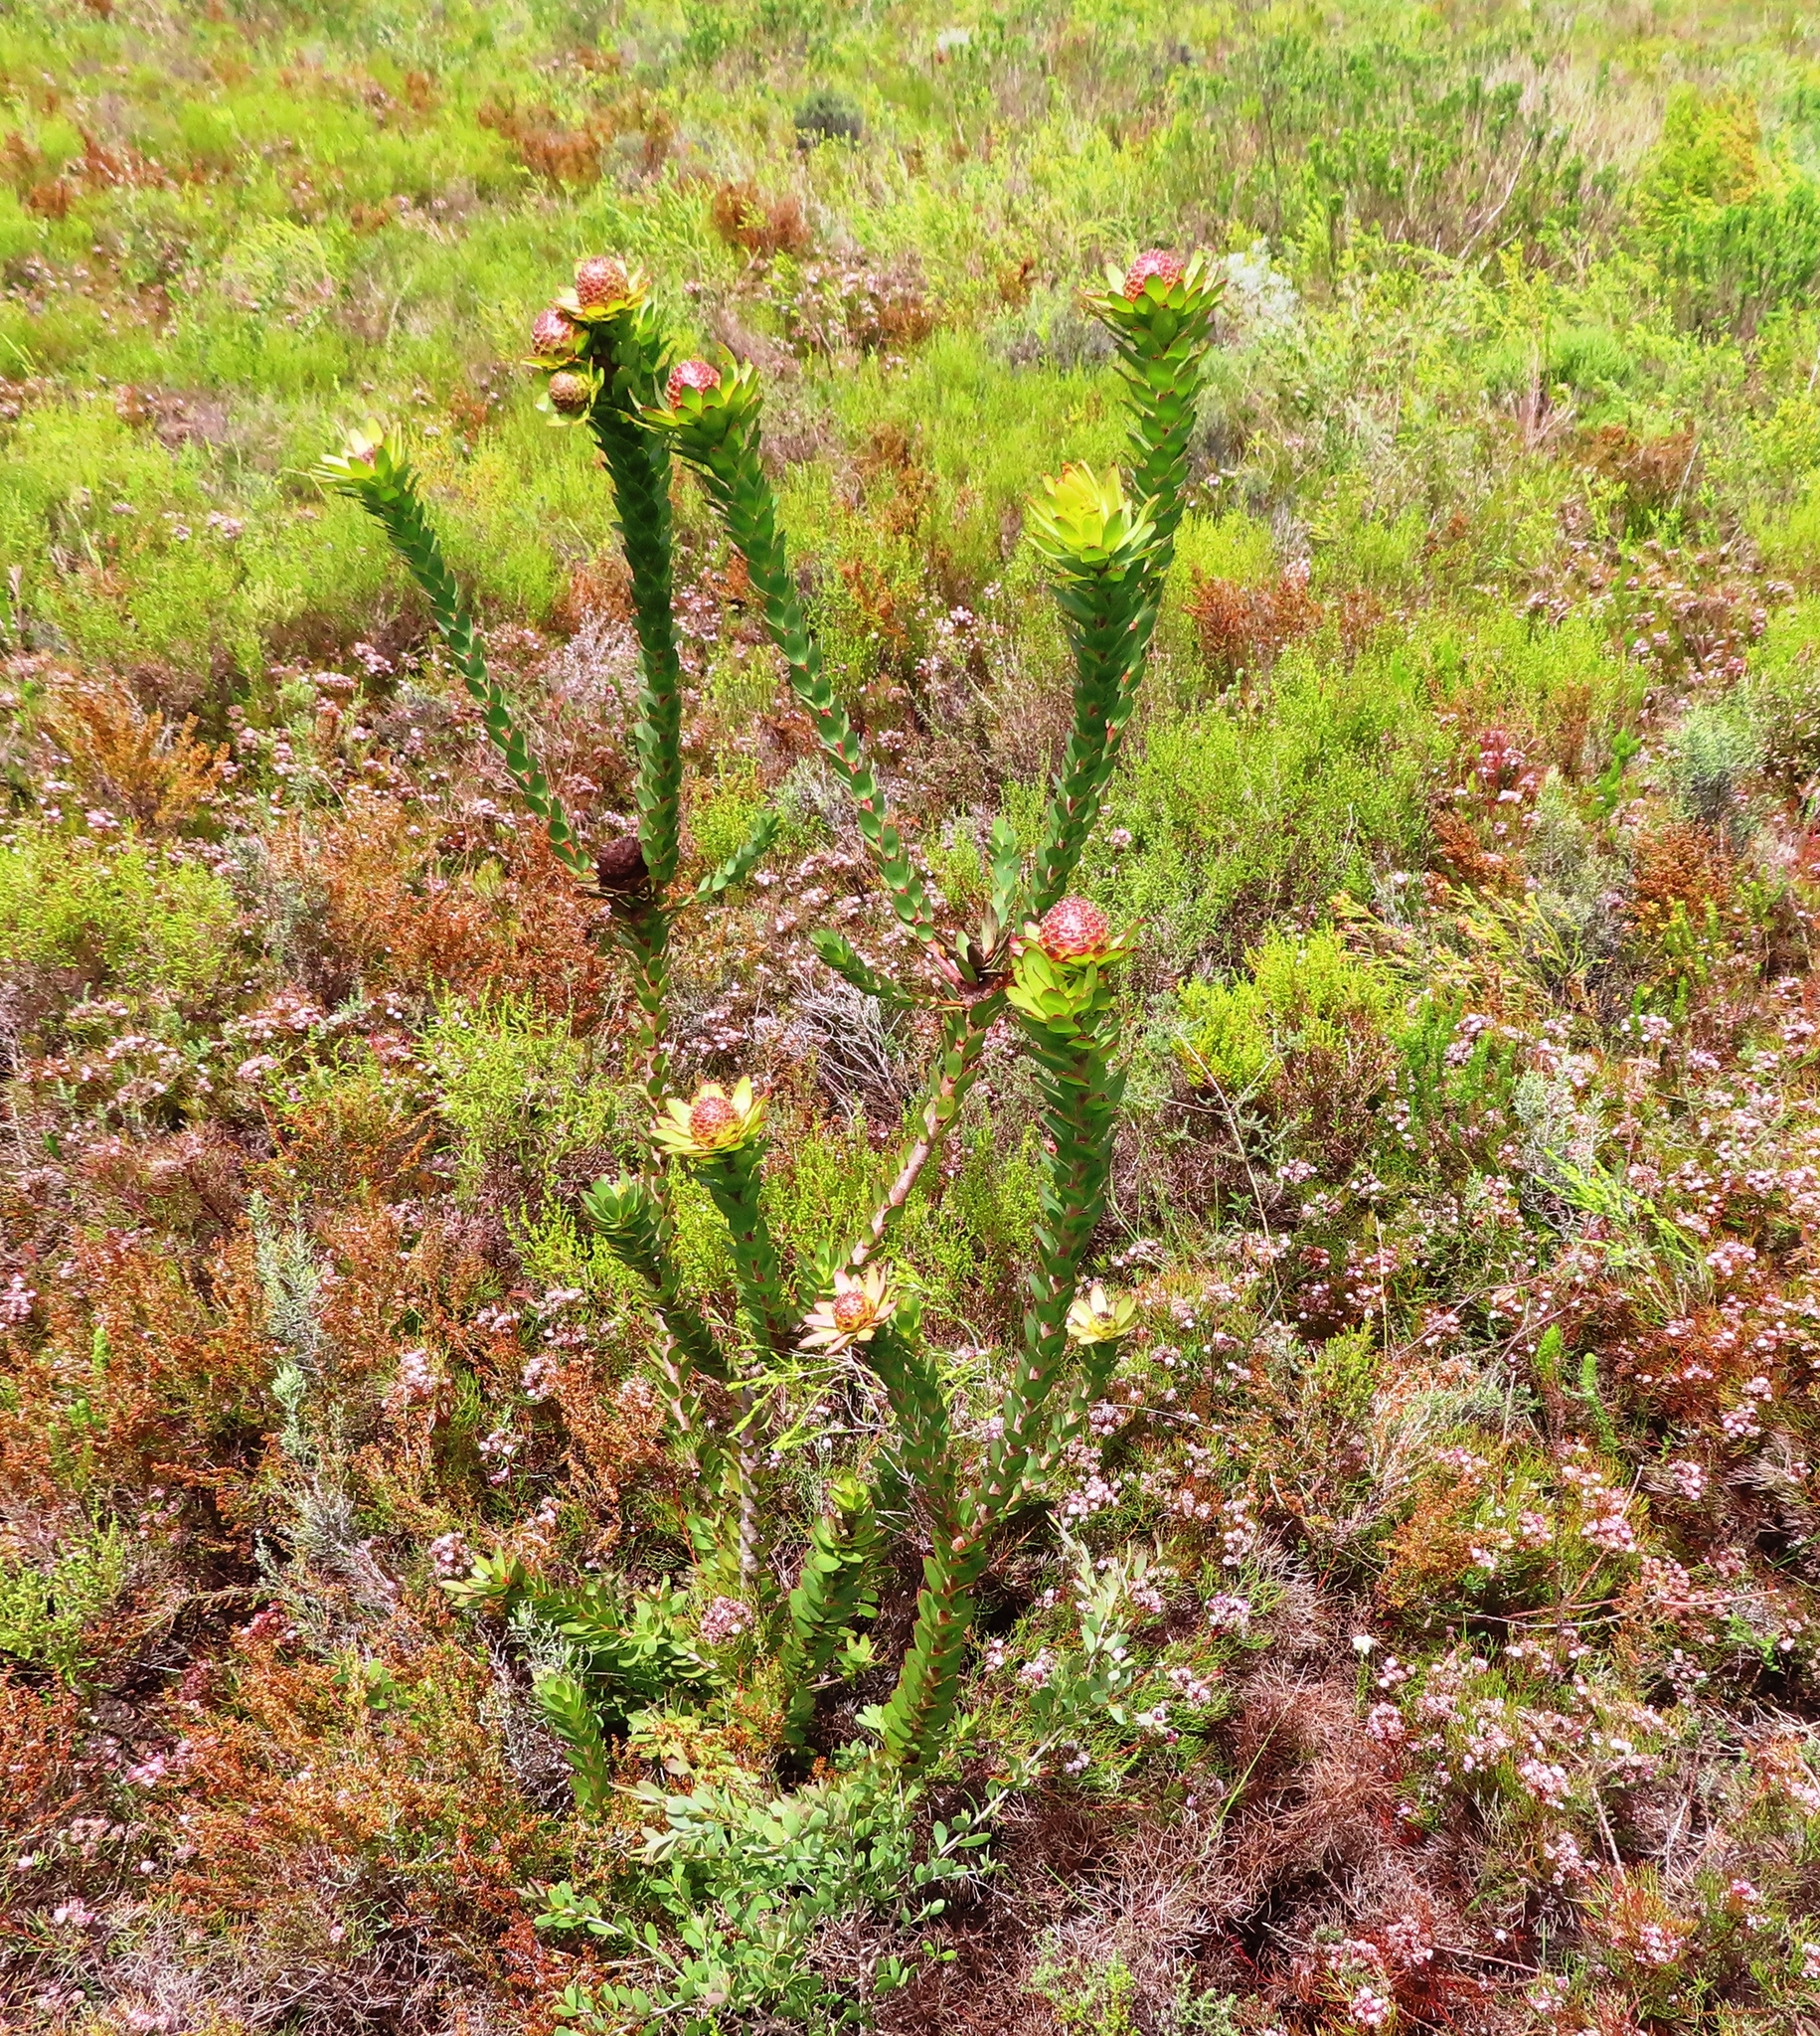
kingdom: Plantae
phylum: Tracheophyta
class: Magnoliopsida
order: Proteales
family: Proteaceae
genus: Leucadendron
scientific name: Leucadendron elimense
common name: Elim conebush
